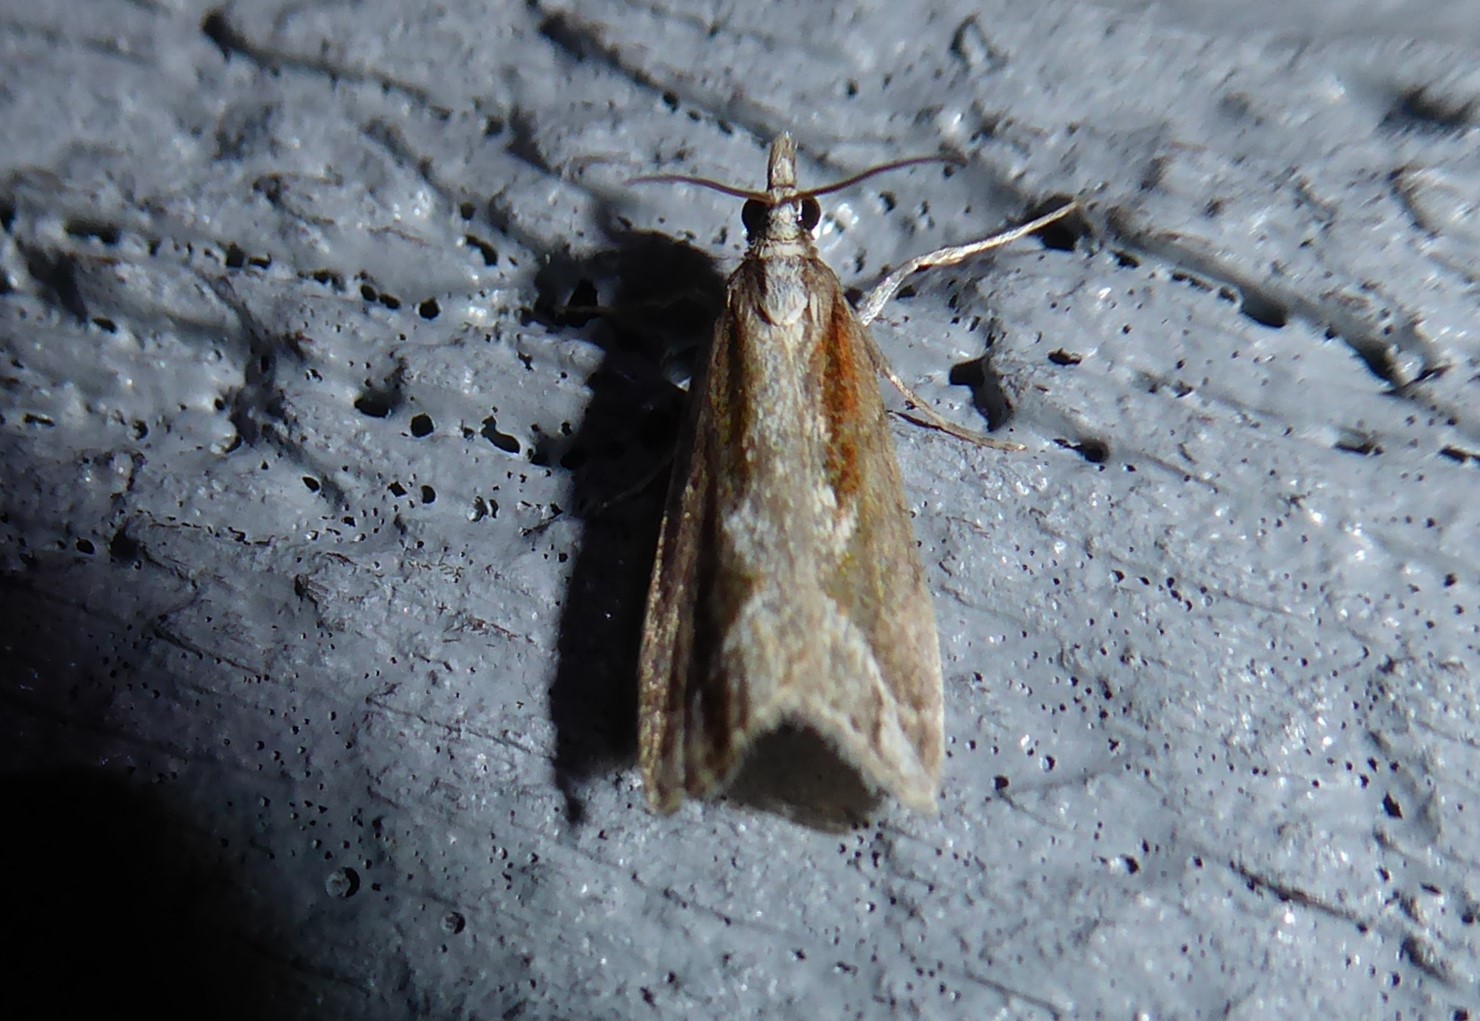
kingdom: Animalia
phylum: Arthropoda
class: Insecta
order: Lepidoptera
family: Crambidae
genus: Eudonia
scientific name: Eudonia steropaea
